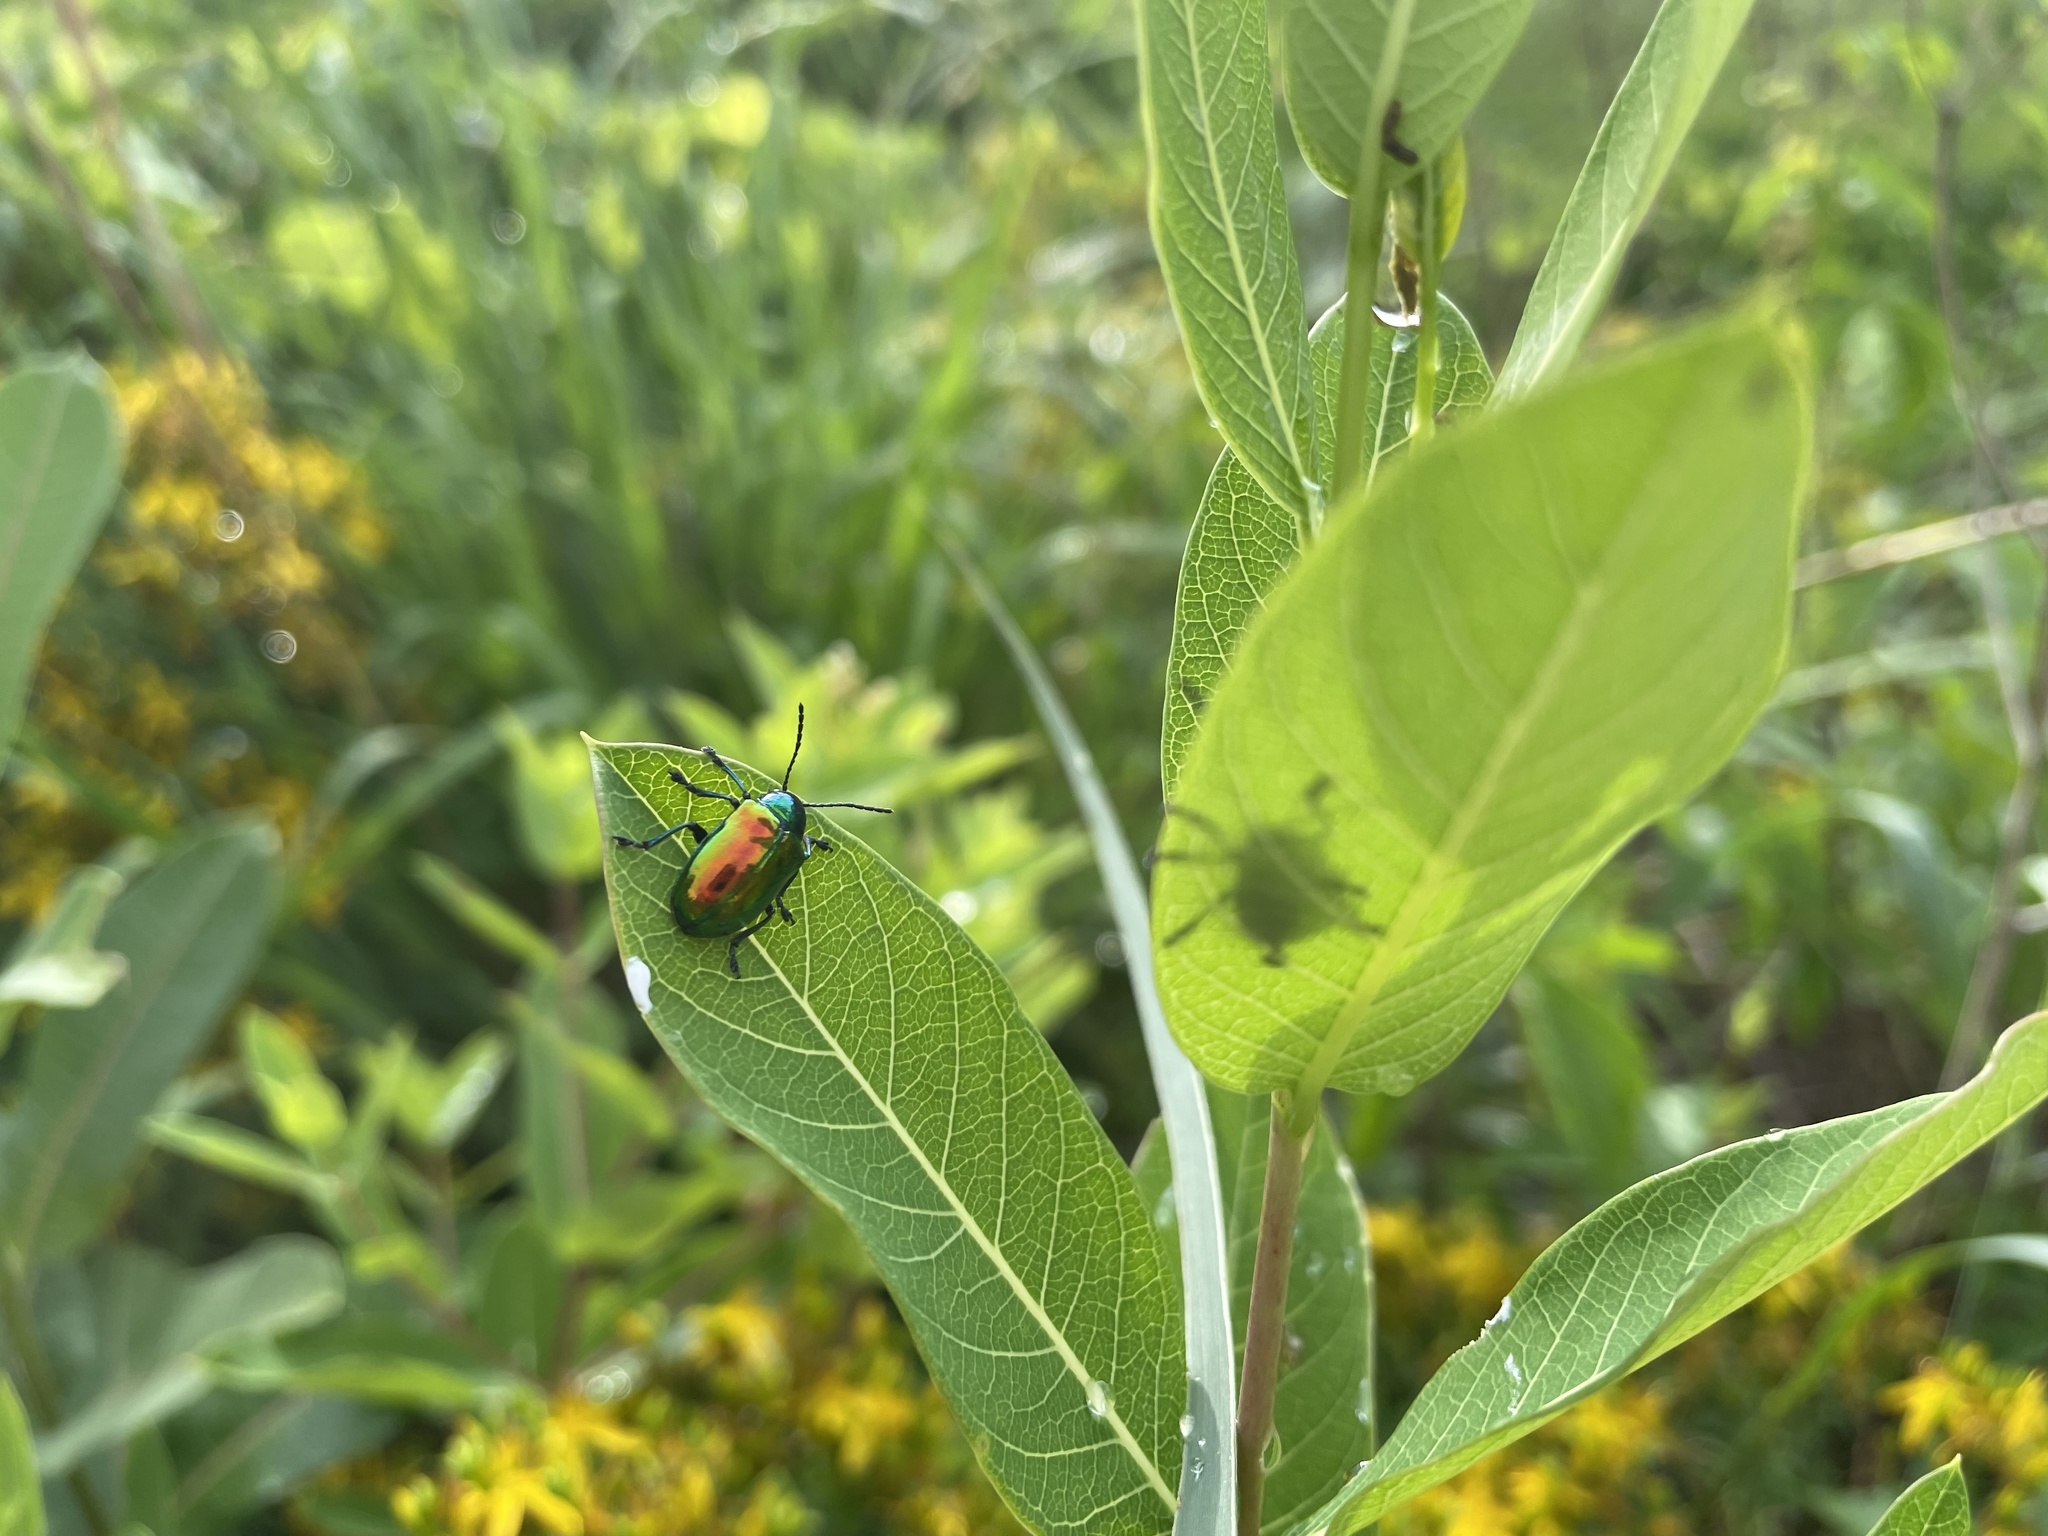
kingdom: Animalia
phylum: Arthropoda
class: Insecta
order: Coleoptera
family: Chrysomelidae
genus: Chrysochus
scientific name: Chrysochus auratus
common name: Dogbane leaf beetle
